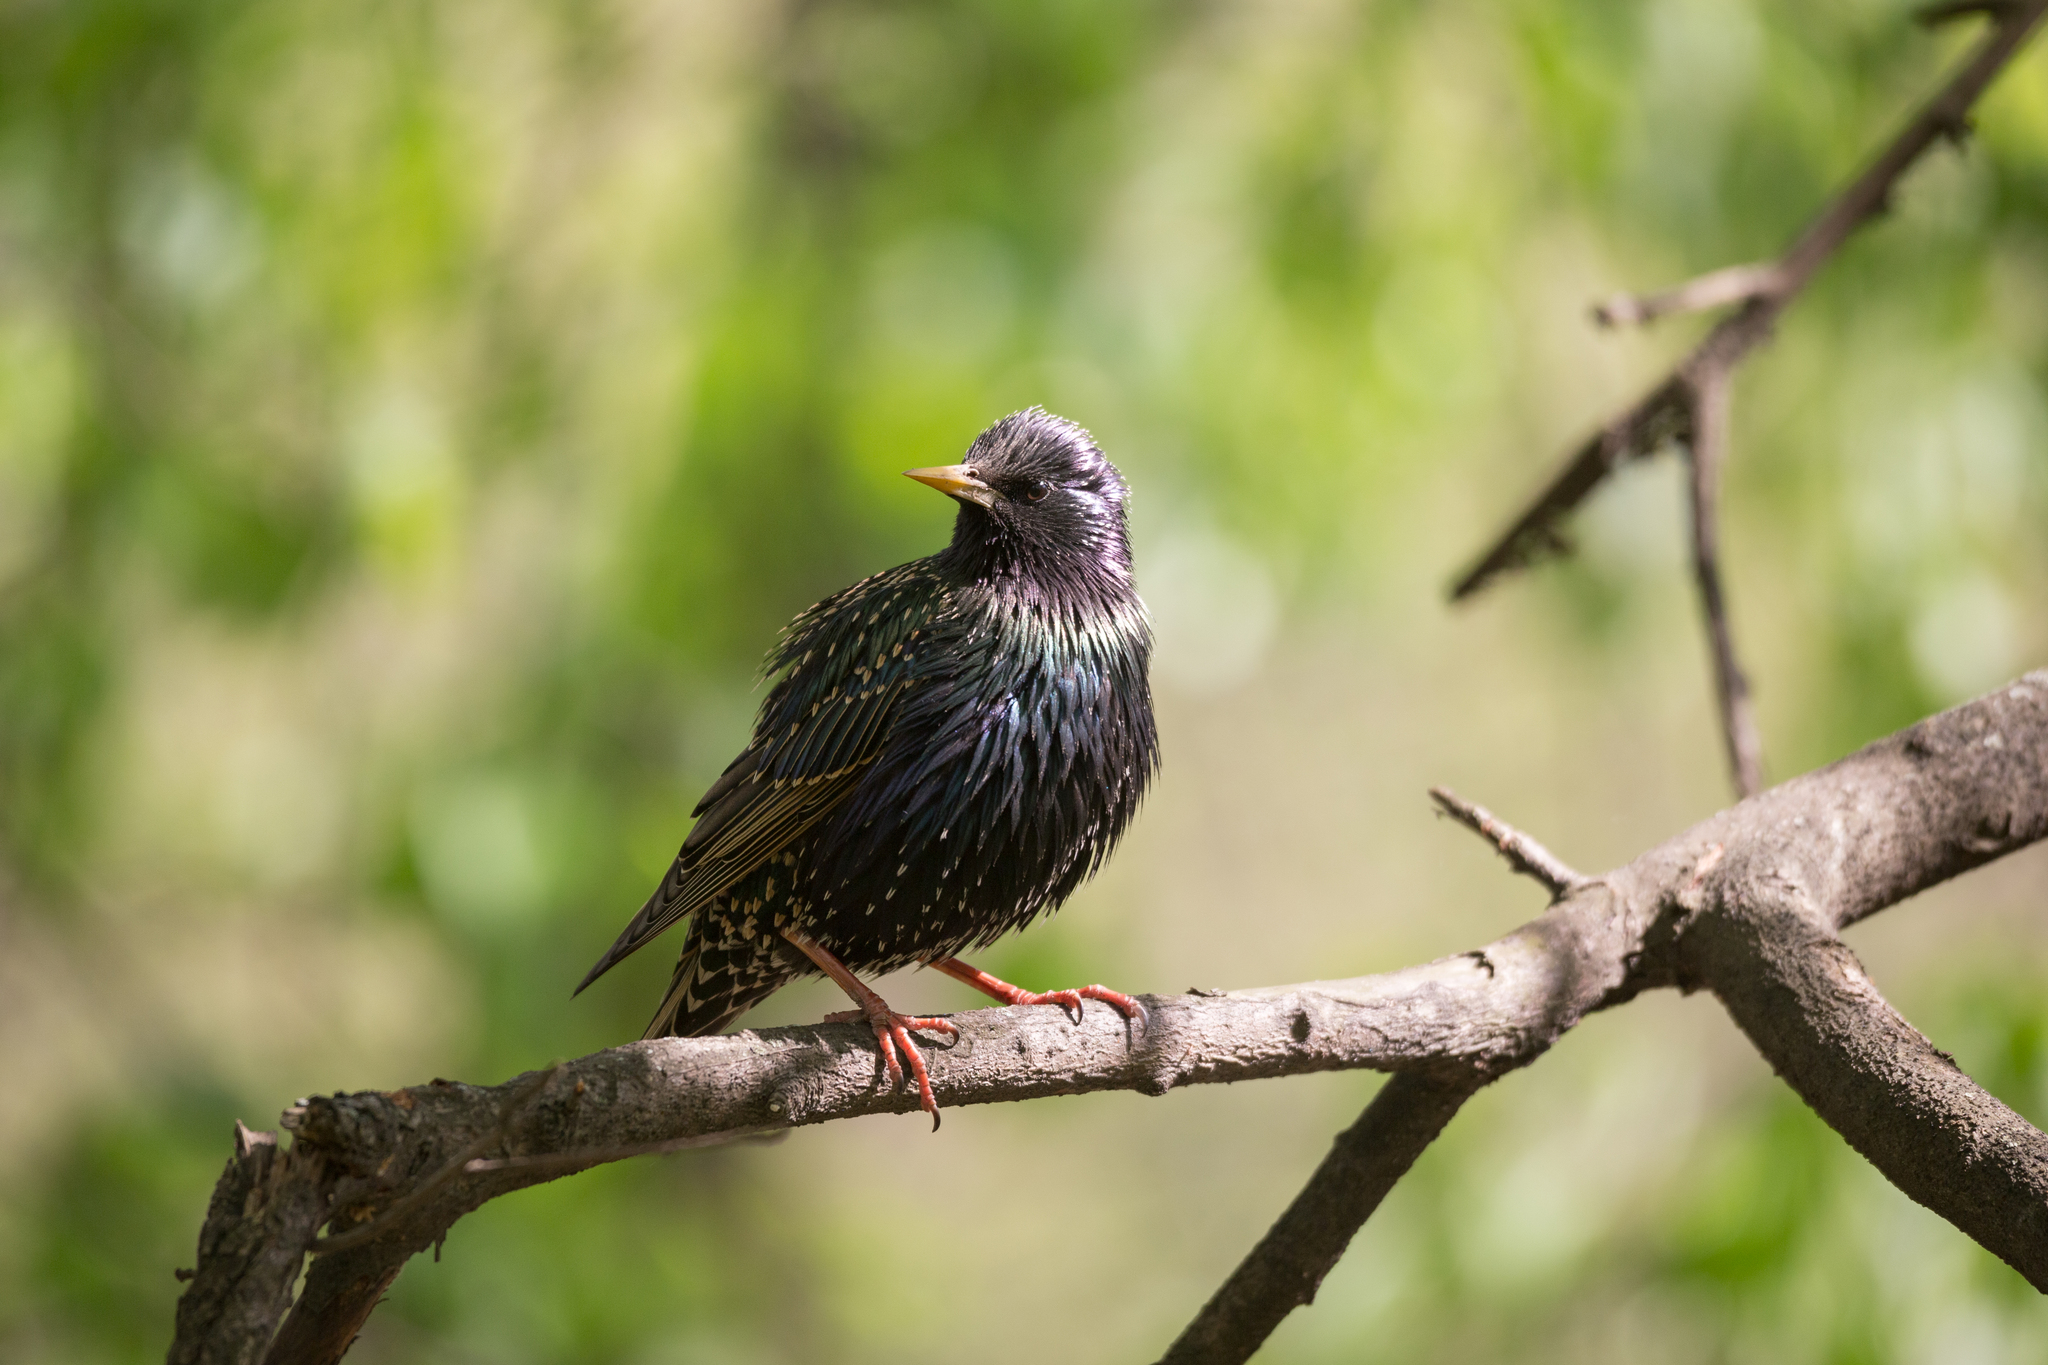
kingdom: Animalia
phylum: Chordata
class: Aves
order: Passeriformes
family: Sturnidae
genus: Sturnus
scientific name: Sturnus vulgaris
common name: Common starling
